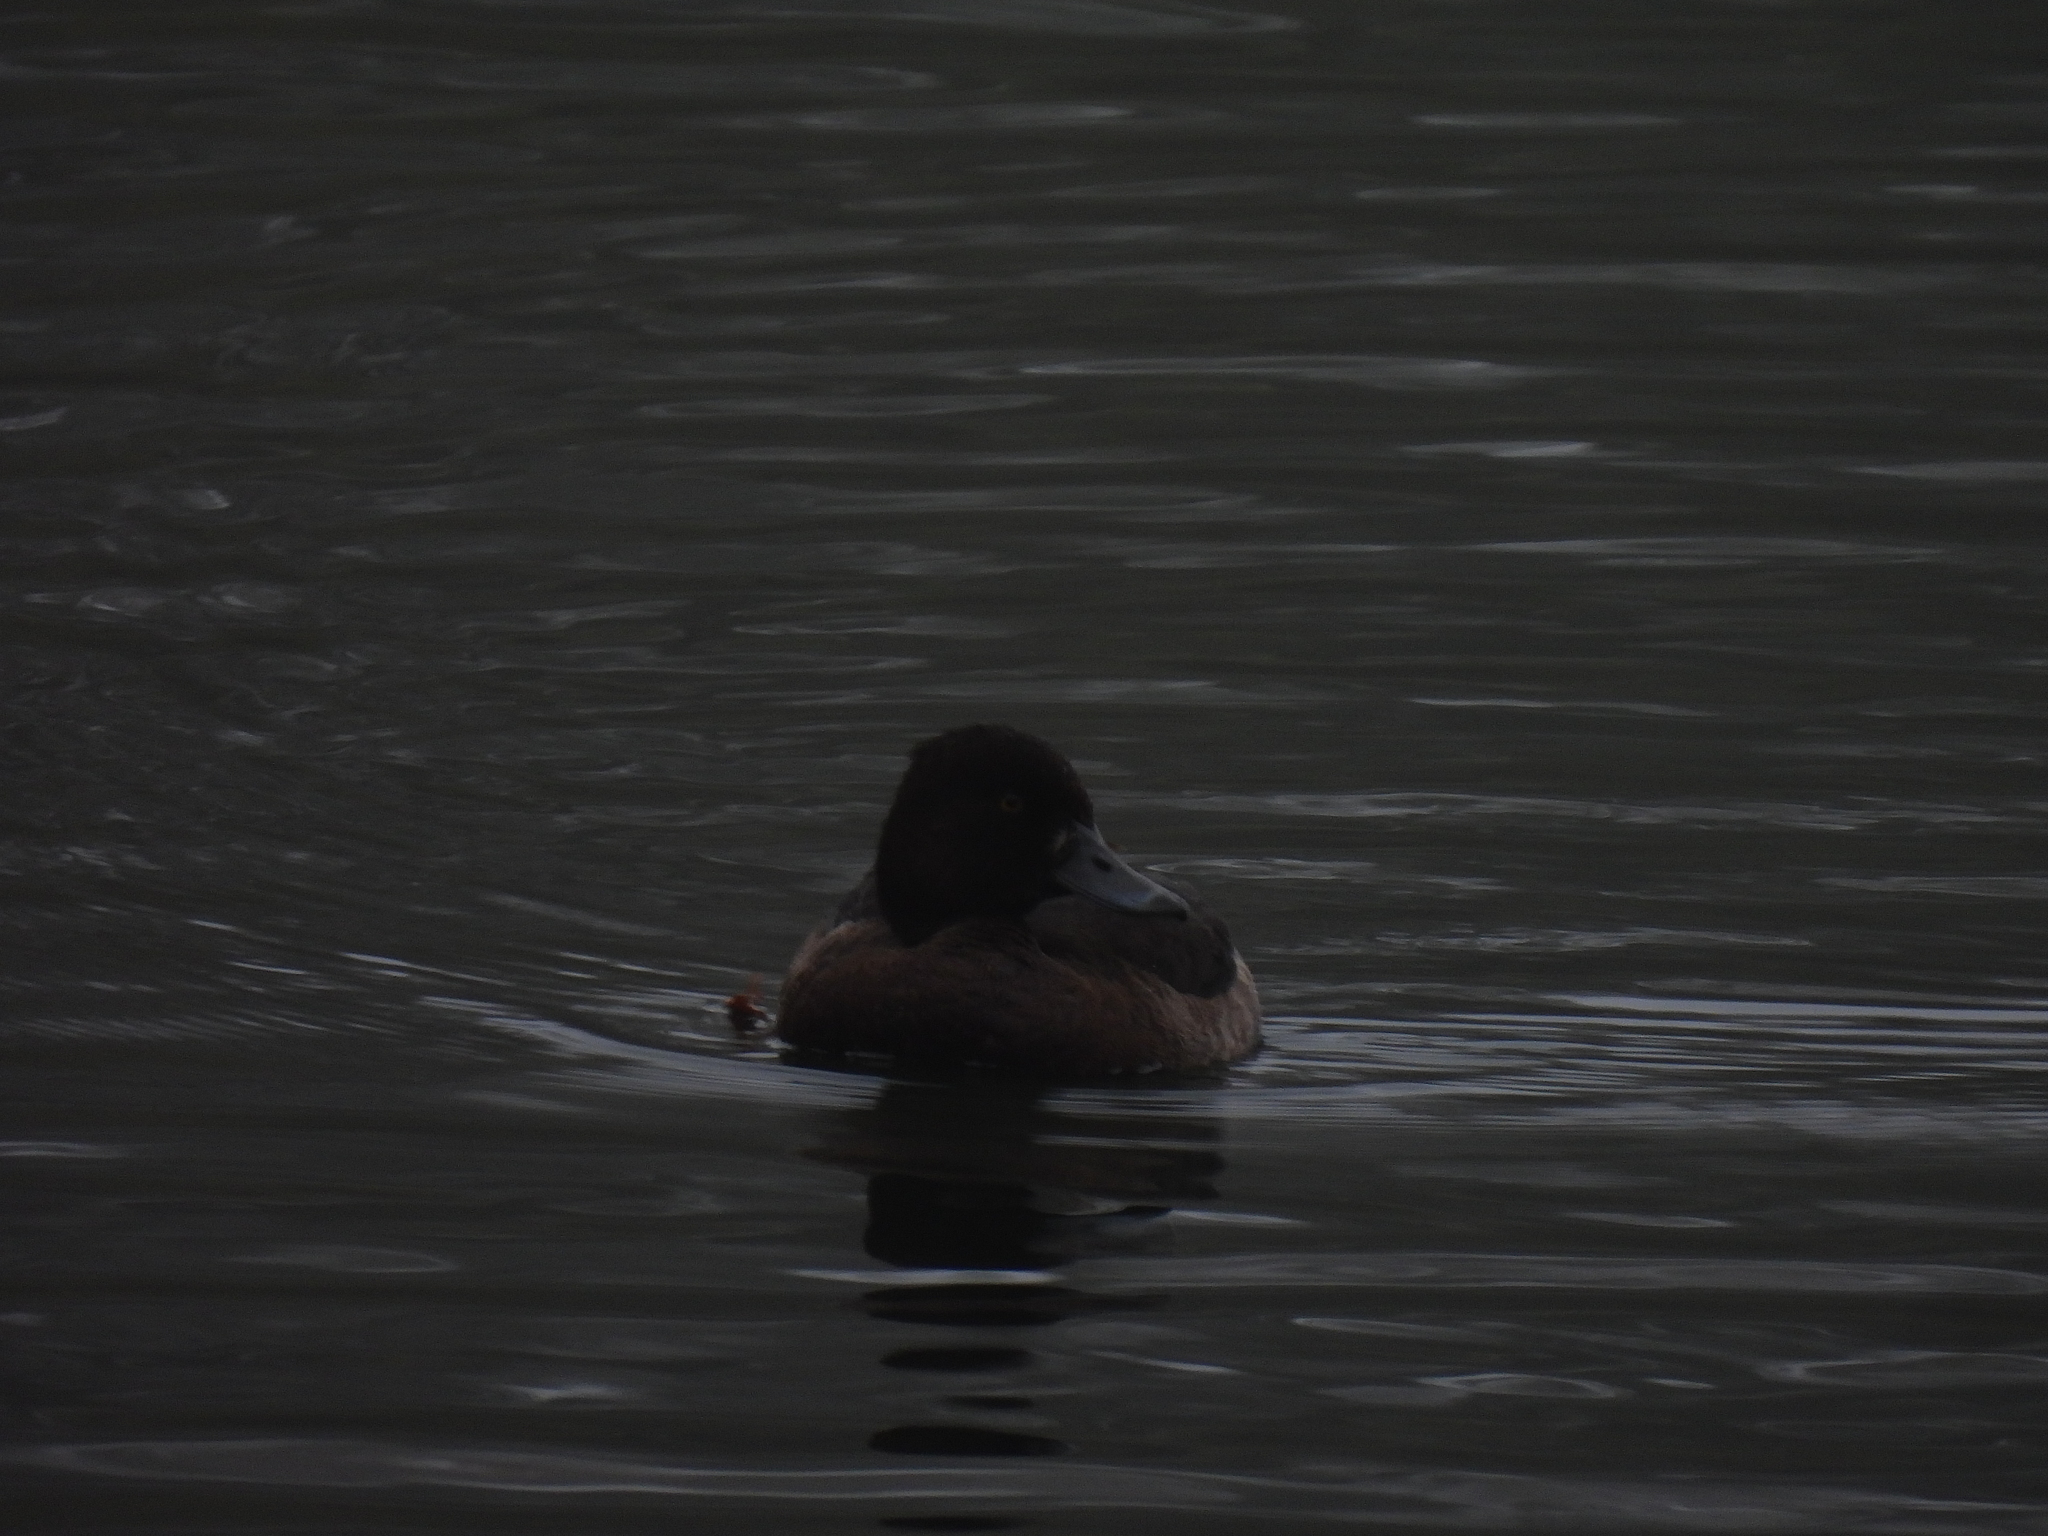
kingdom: Animalia
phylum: Chordata
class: Aves
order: Anseriformes
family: Anatidae
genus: Aythya
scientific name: Aythya fuligula
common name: Tufted duck
